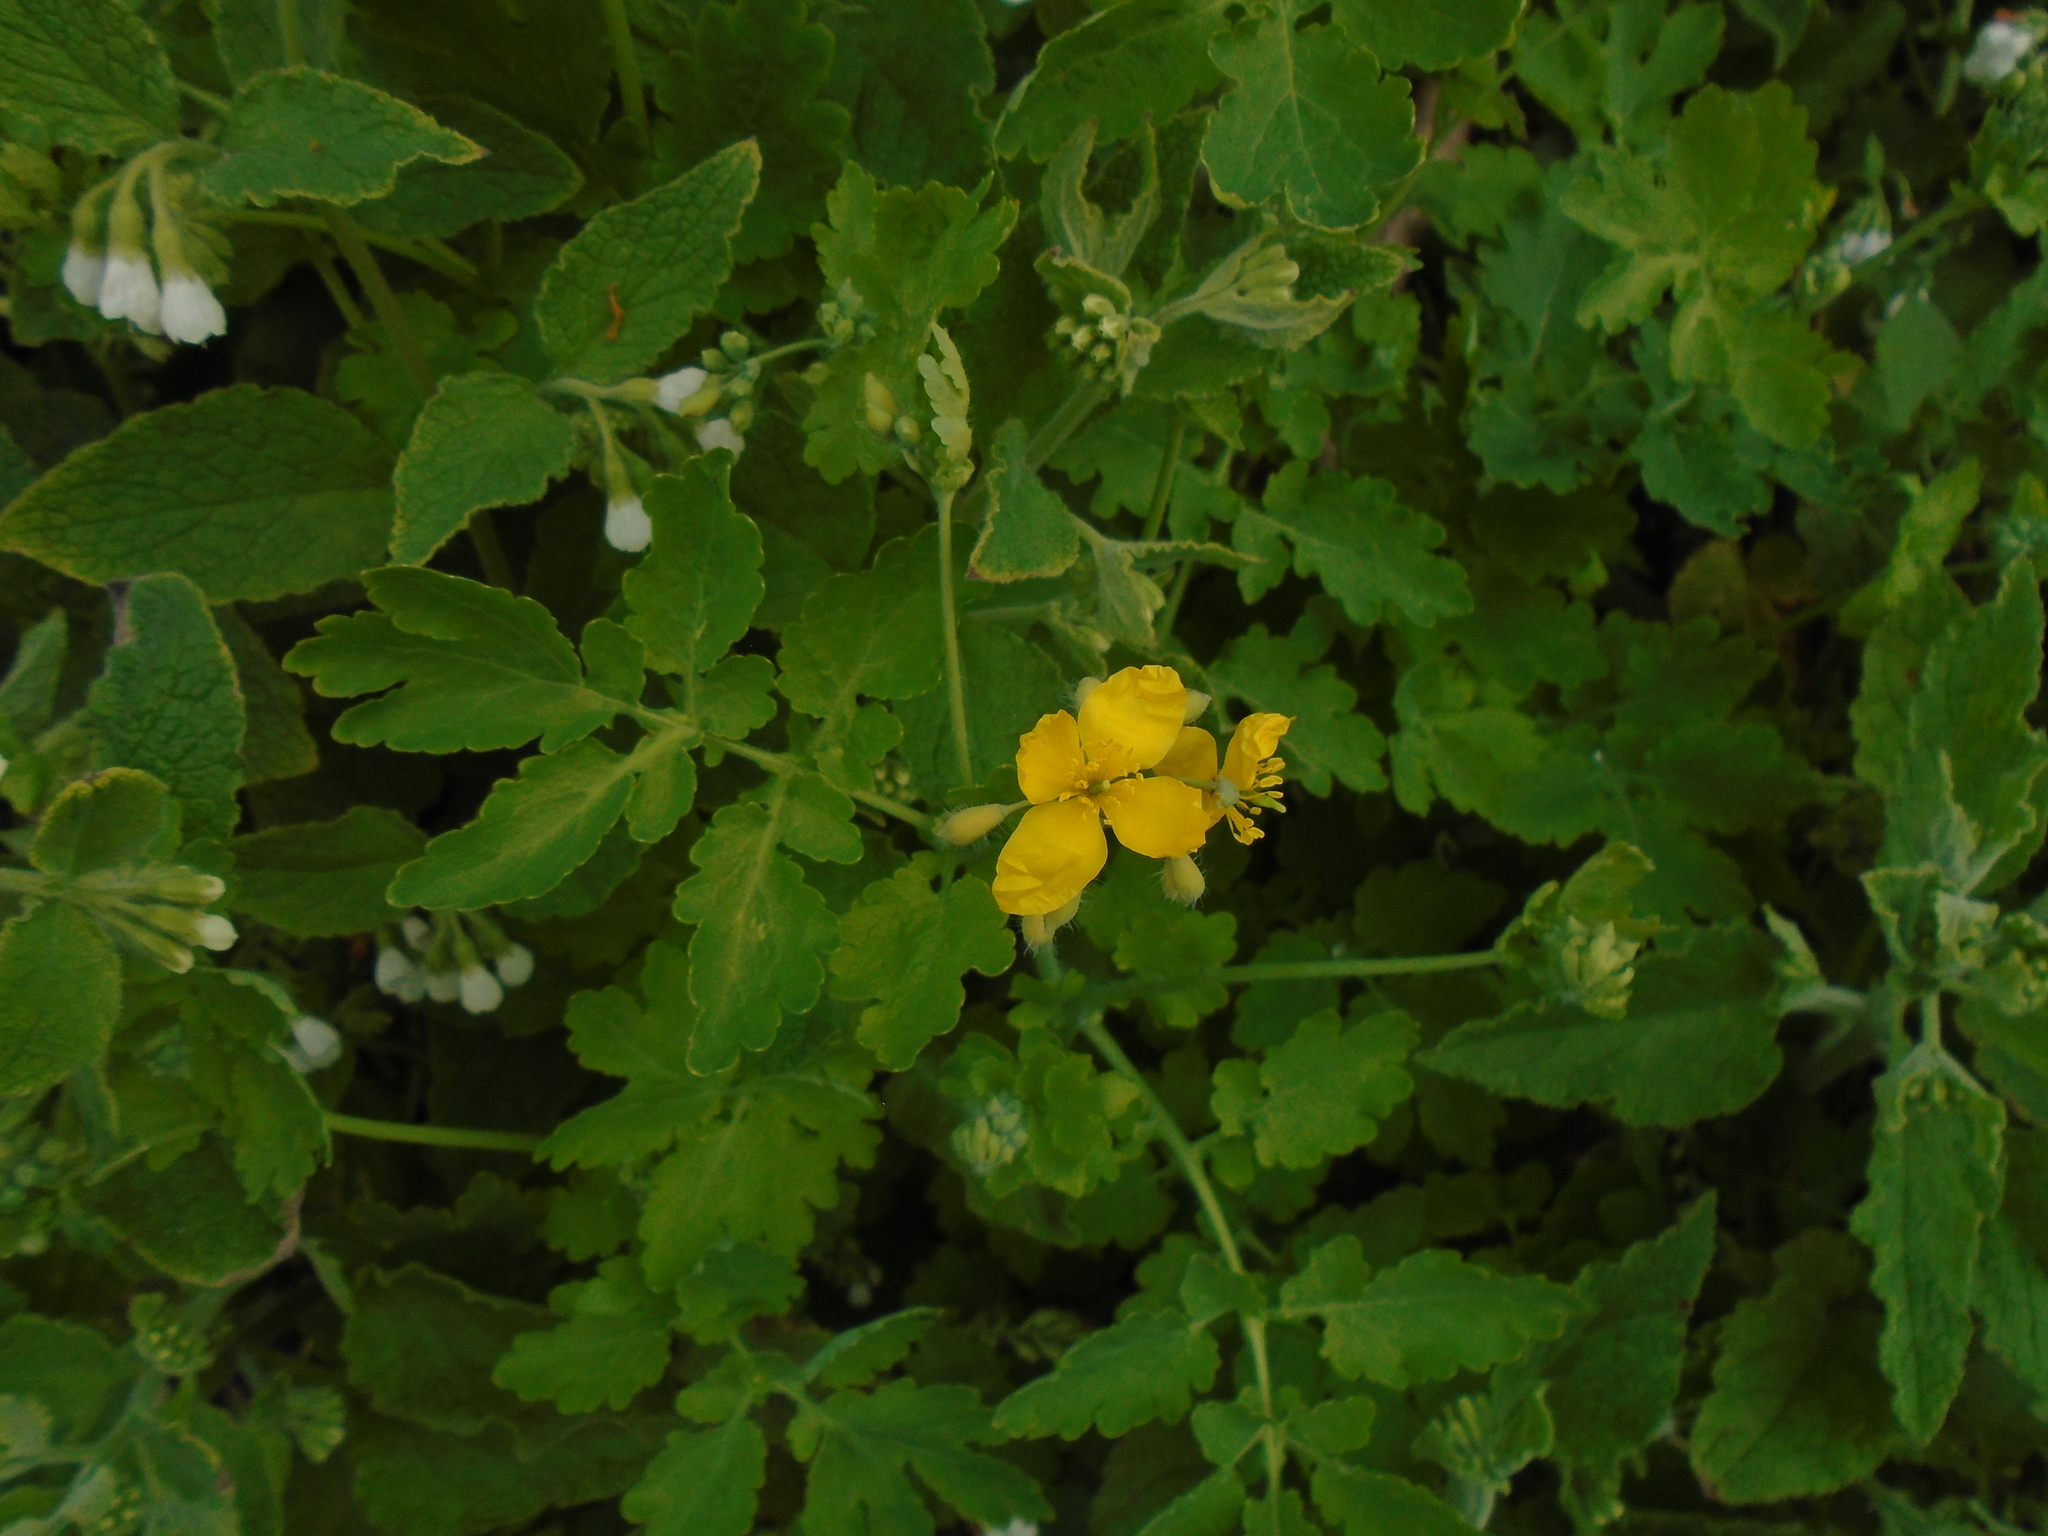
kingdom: Plantae
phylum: Tracheophyta
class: Magnoliopsida
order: Ranunculales
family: Papaveraceae
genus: Chelidonium
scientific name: Chelidonium majus
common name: Greater celandine
